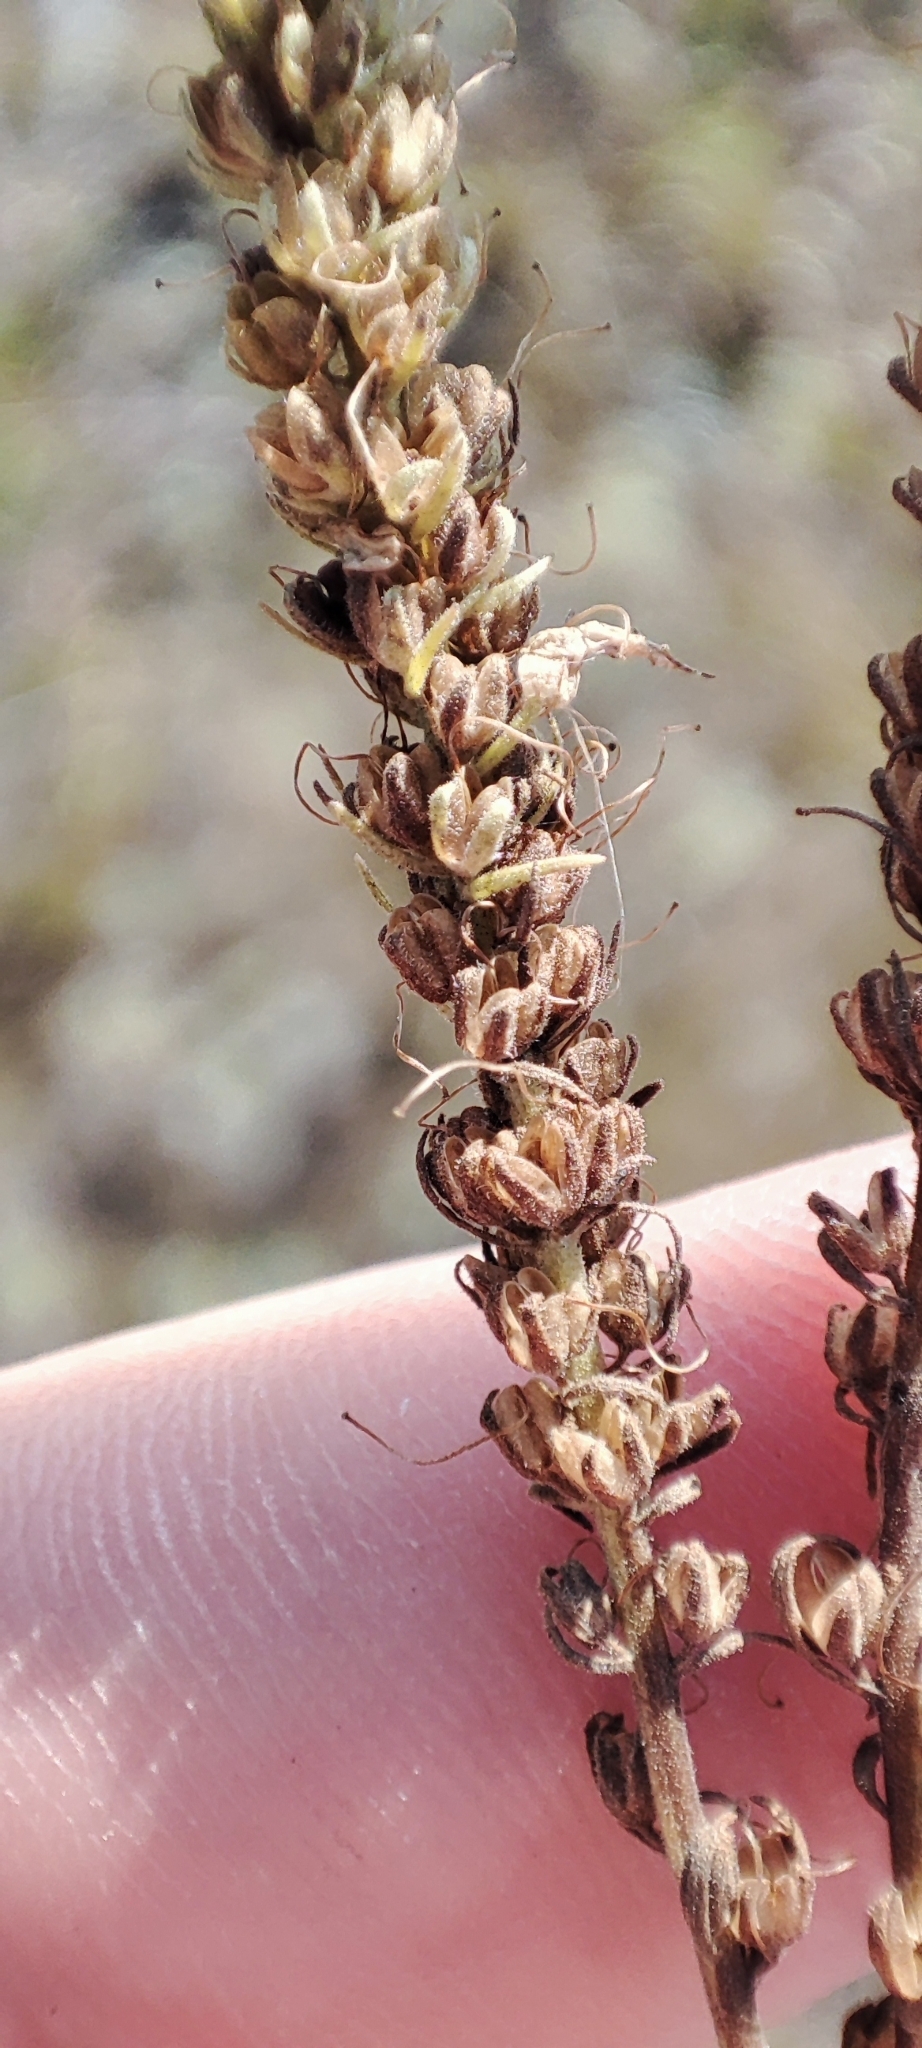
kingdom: Plantae
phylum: Tracheophyta
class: Magnoliopsida
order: Lamiales
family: Plantaginaceae
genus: Veronica
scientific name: Veronica spicata
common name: Spiked speedwell
